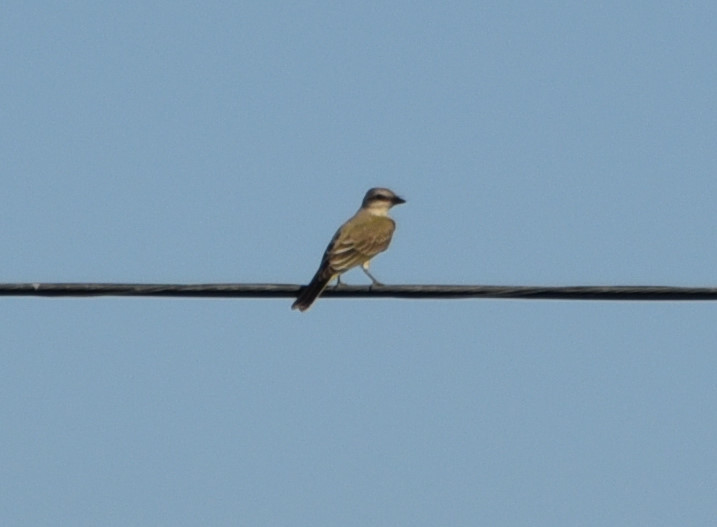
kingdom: Animalia
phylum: Chordata
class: Aves
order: Passeriformes
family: Tyrannidae
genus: Tyrannus
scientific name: Tyrannus verticalis
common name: Western kingbird
